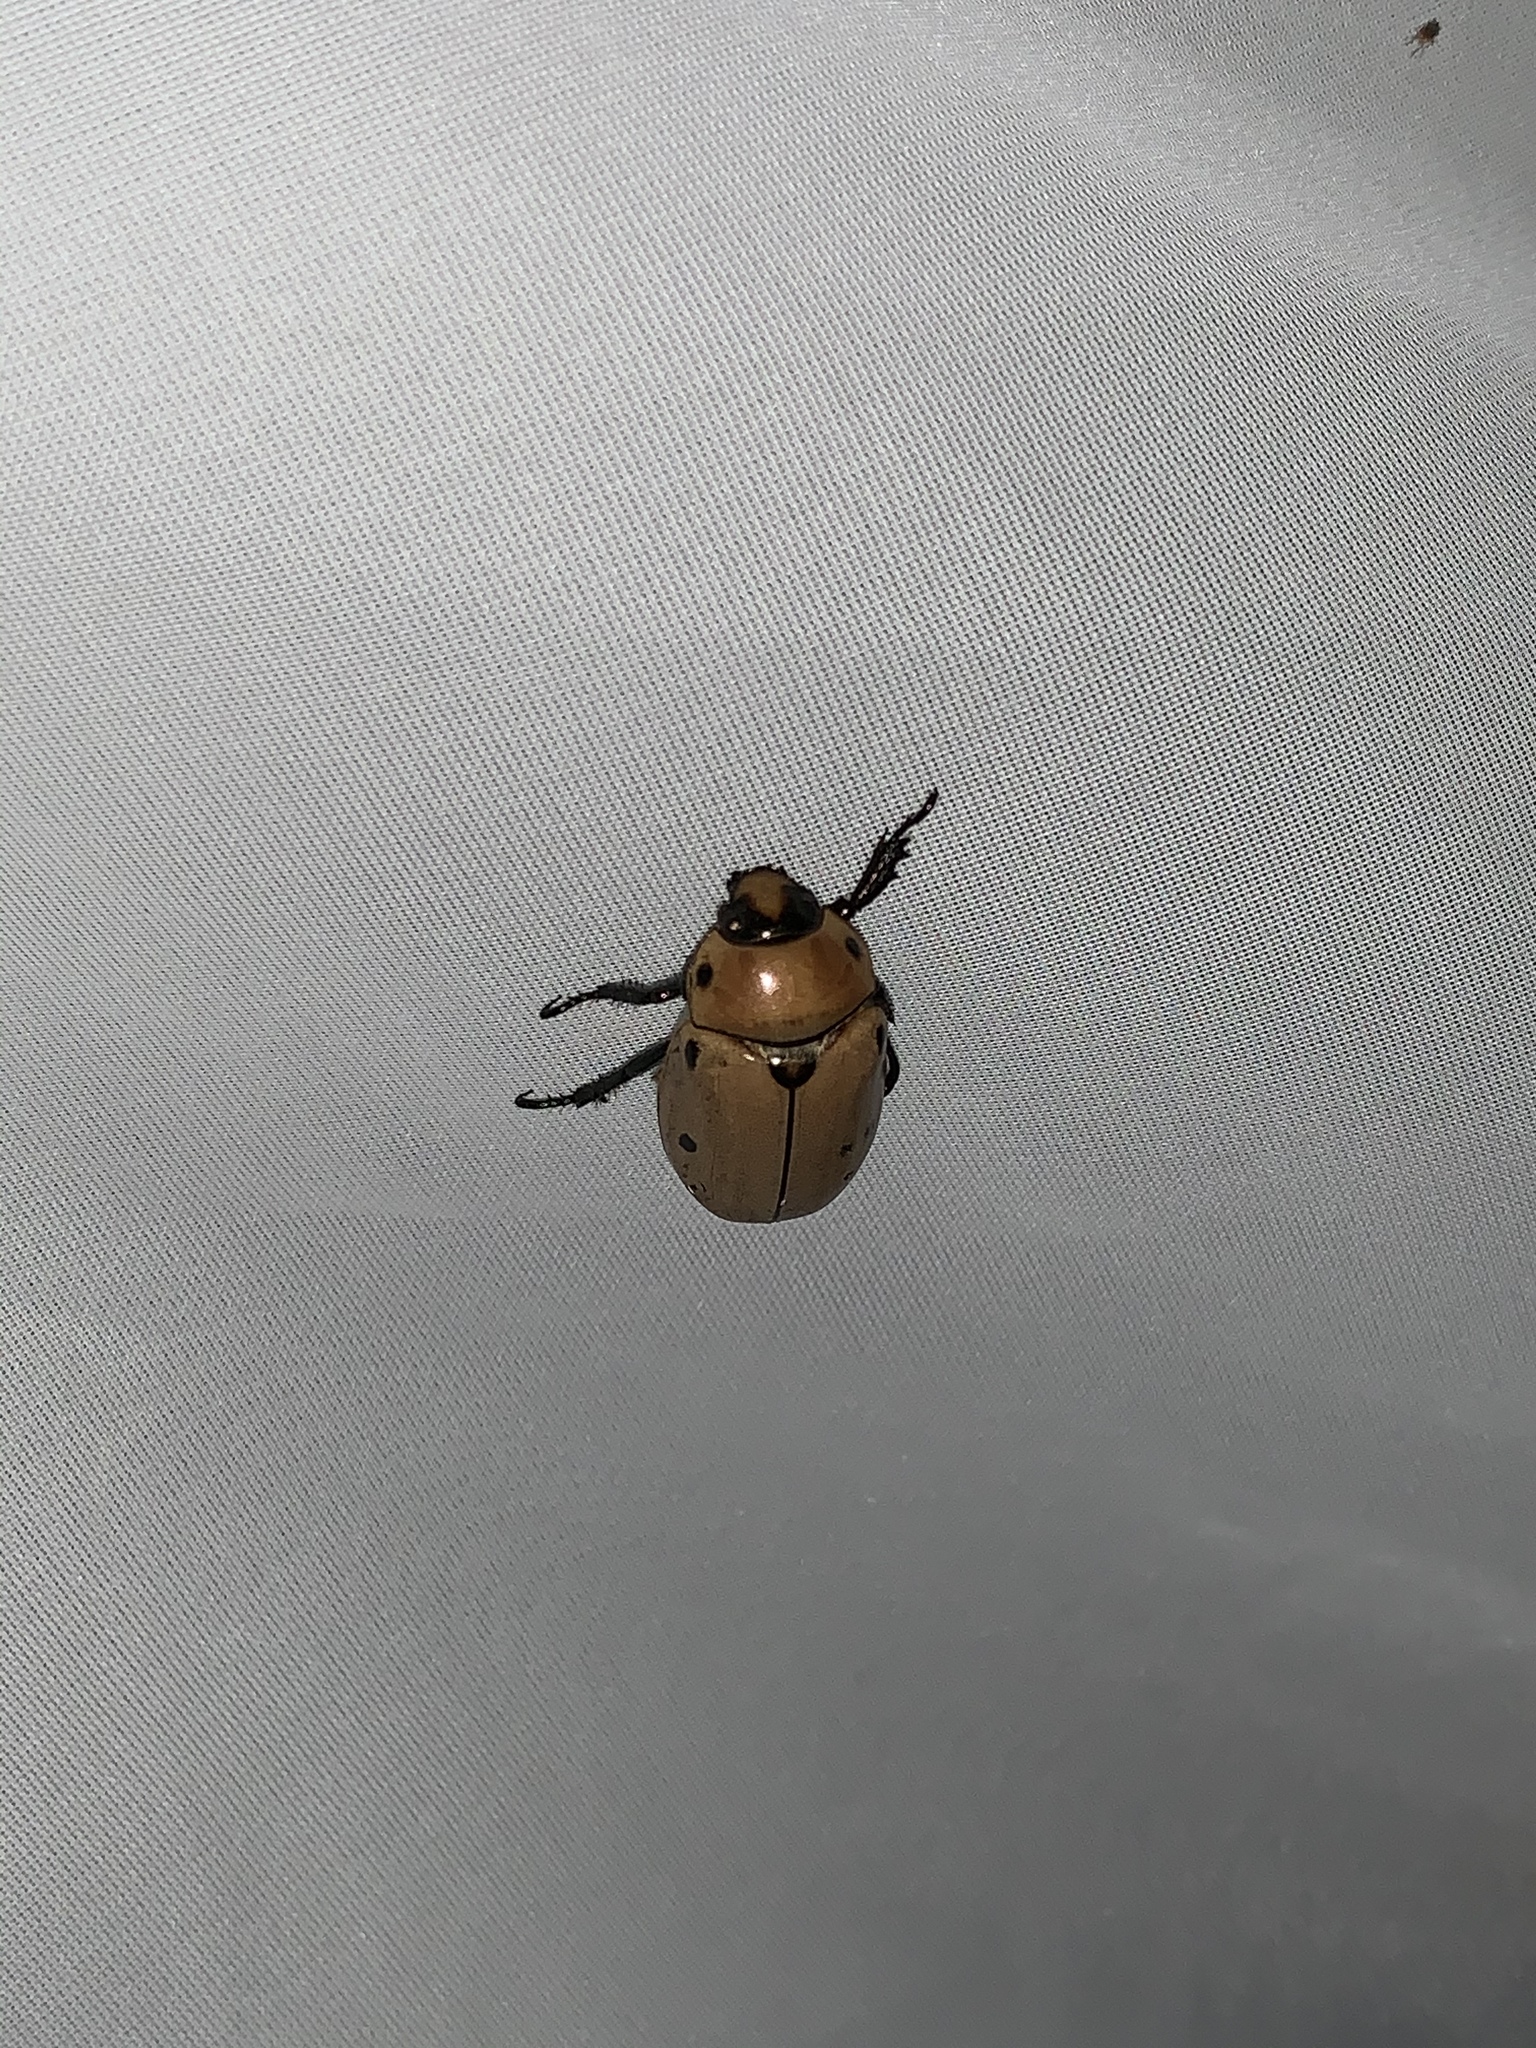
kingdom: Animalia
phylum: Arthropoda
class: Insecta
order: Coleoptera
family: Scarabaeidae
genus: Pelidnota
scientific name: Pelidnota punctata
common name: Grapevine beetle
